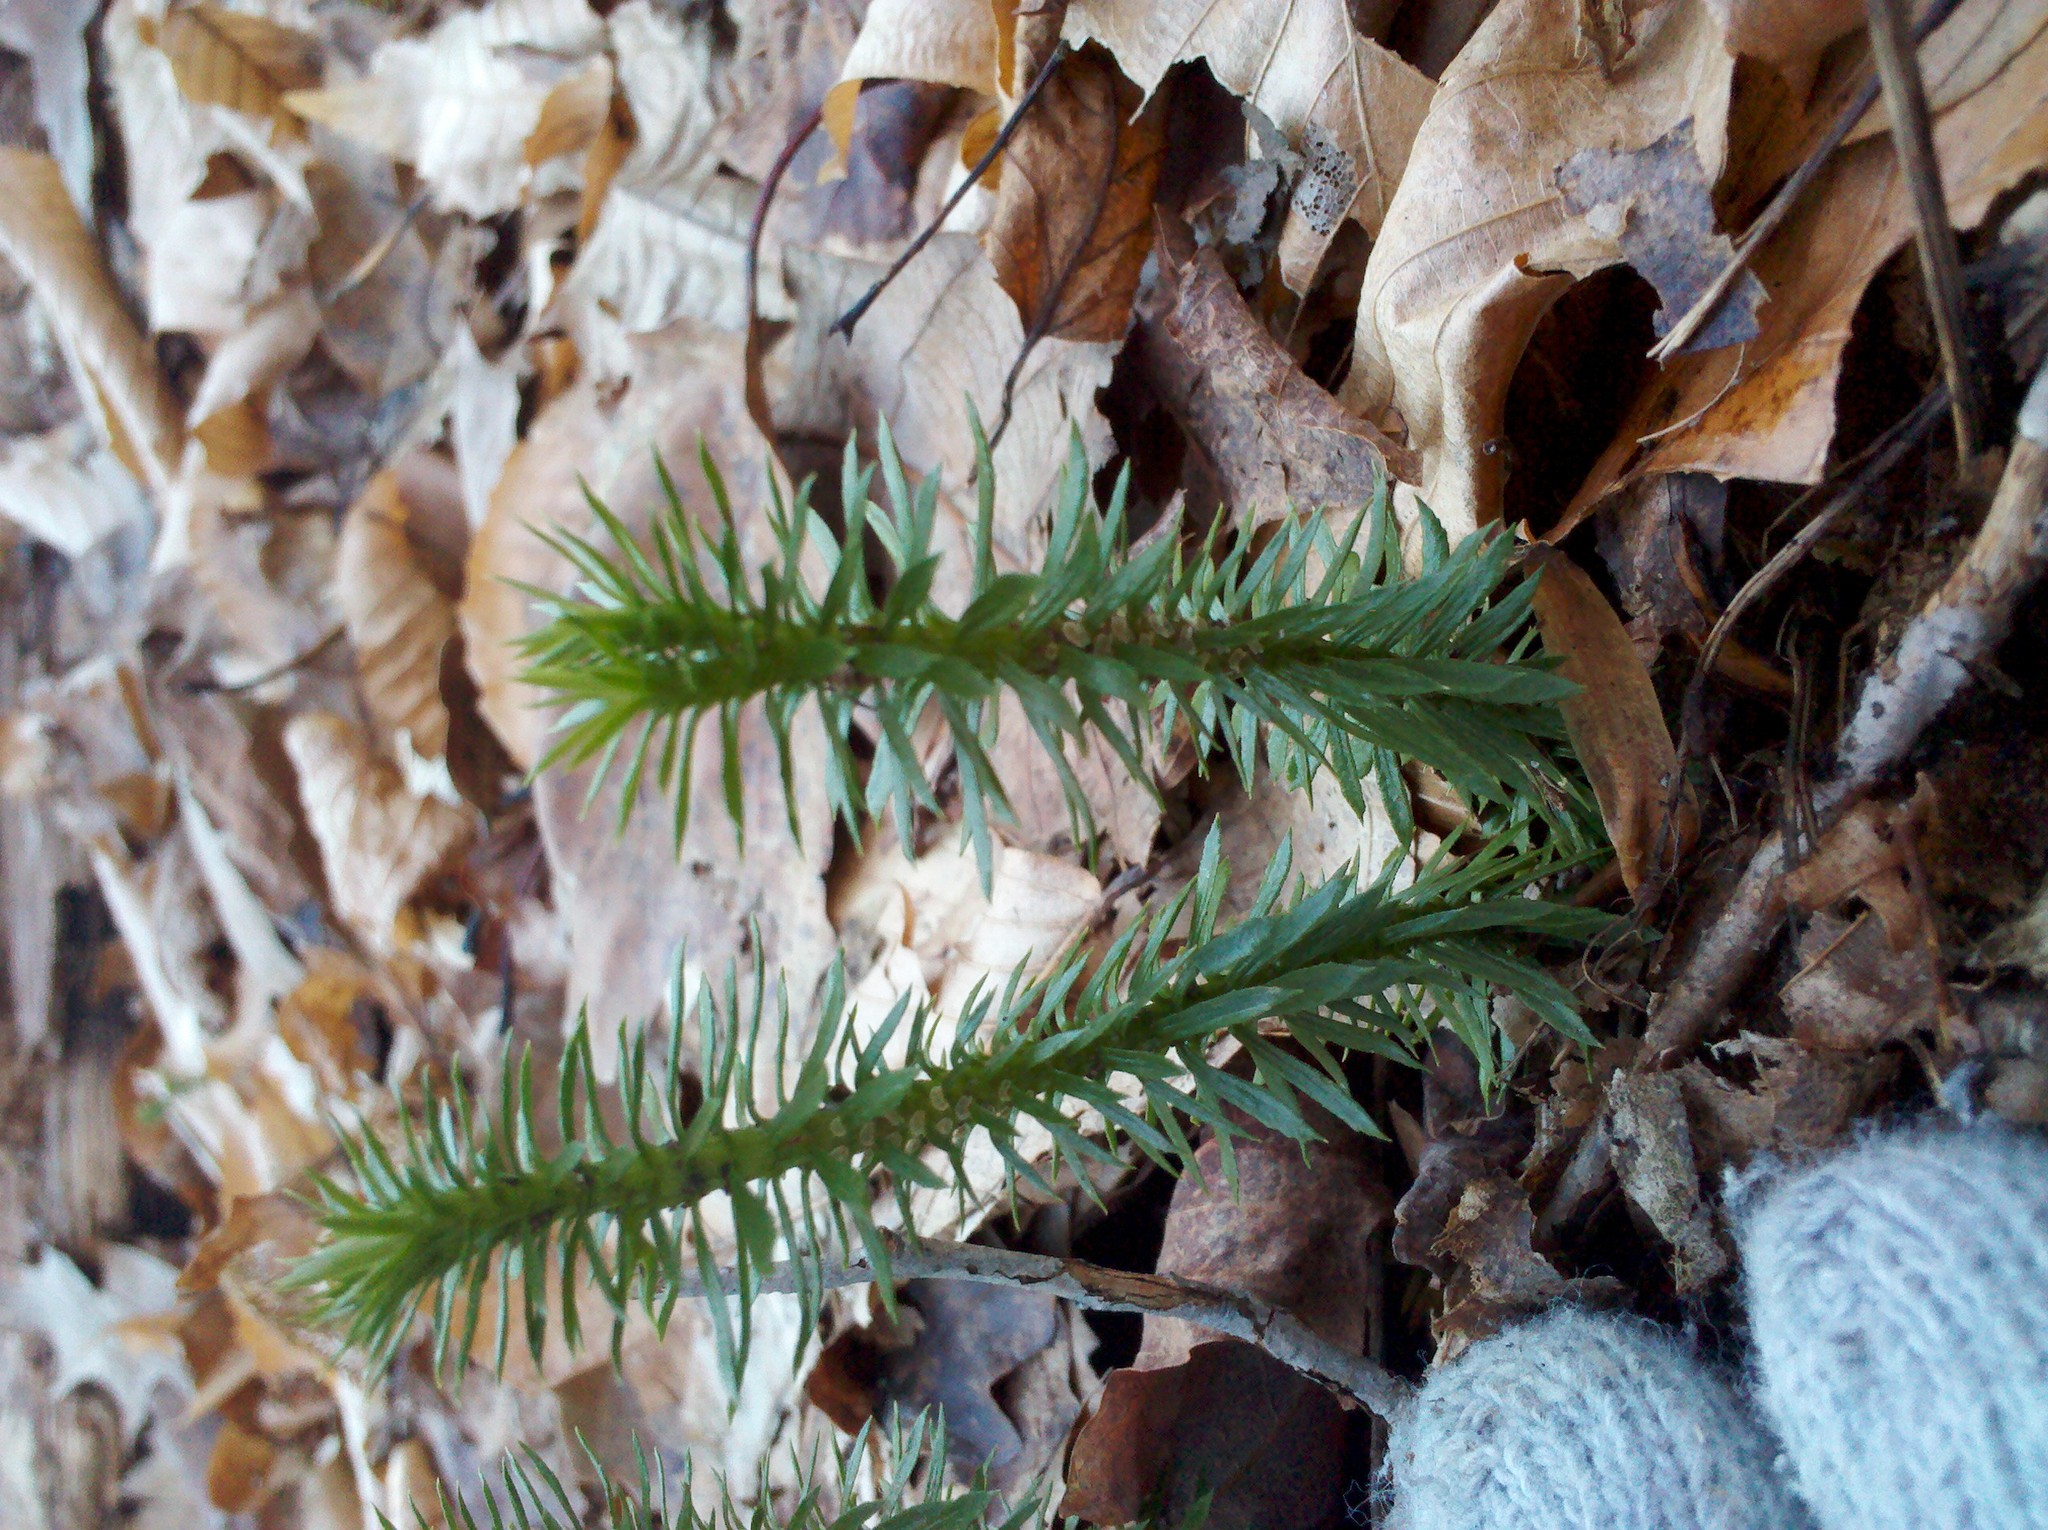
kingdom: Plantae
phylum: Tracheophyta
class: Lycopodiopsida
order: Lycopodiales
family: Lycopodiaceae
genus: Huperzia
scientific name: Huperzia lucidula
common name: Shining clubmoss
